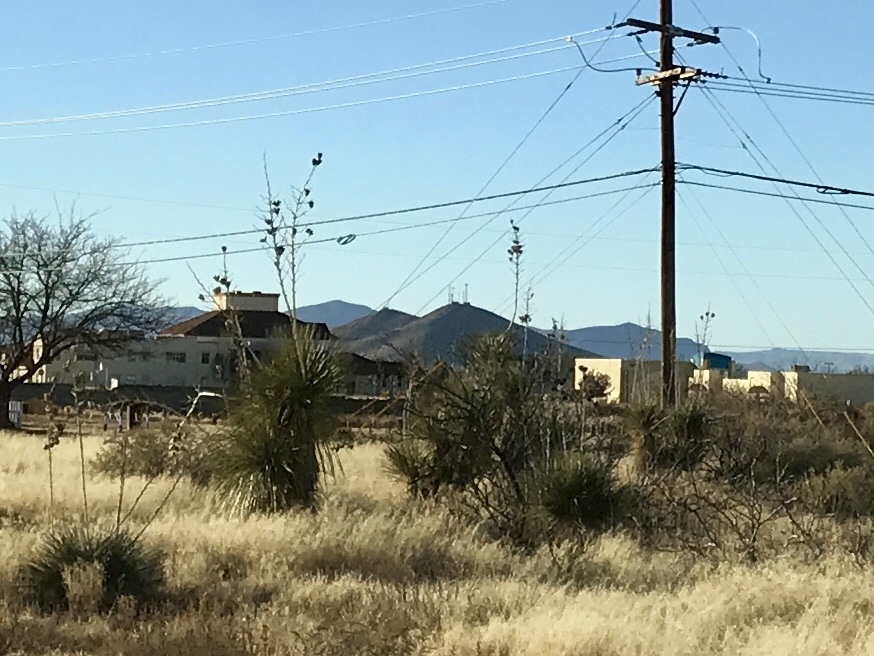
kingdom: Plantae
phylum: Tracheophyta
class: Liliopsida
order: Asparagales
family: Asparagaceae
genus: Yucca
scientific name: Yucca elata
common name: Palmella
